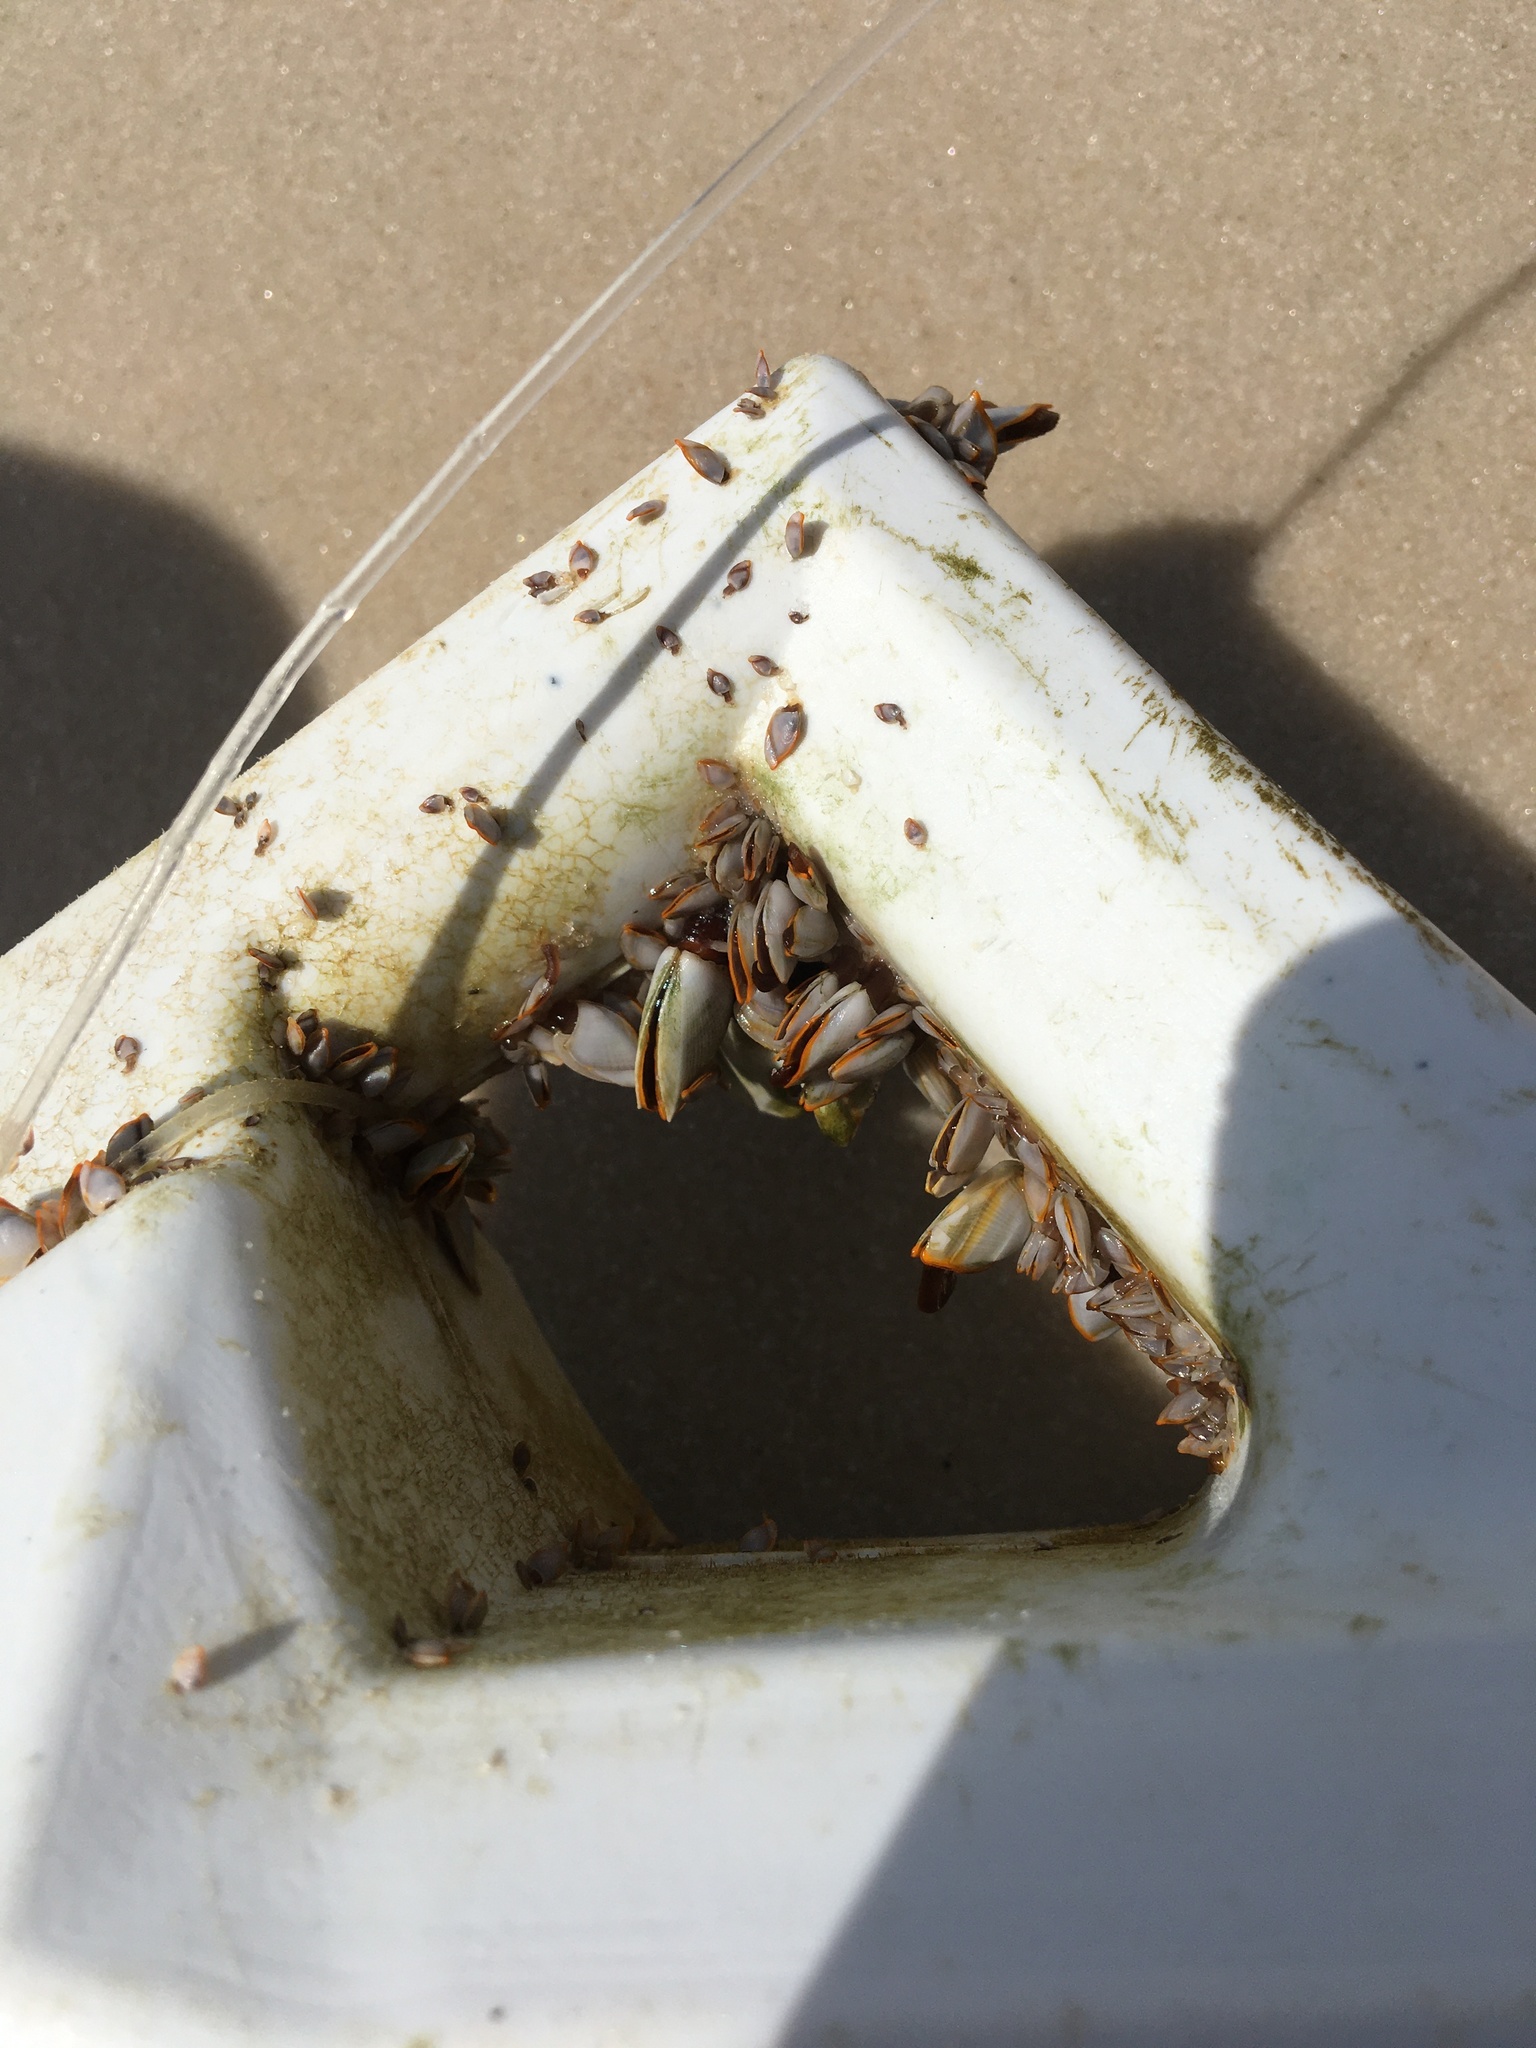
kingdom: Animalia
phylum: Arthropoda
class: Maxillopoda
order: Pedunculata
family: Lepadidae
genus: Lepas
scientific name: Lepas anserifera
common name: Goose barnacle
